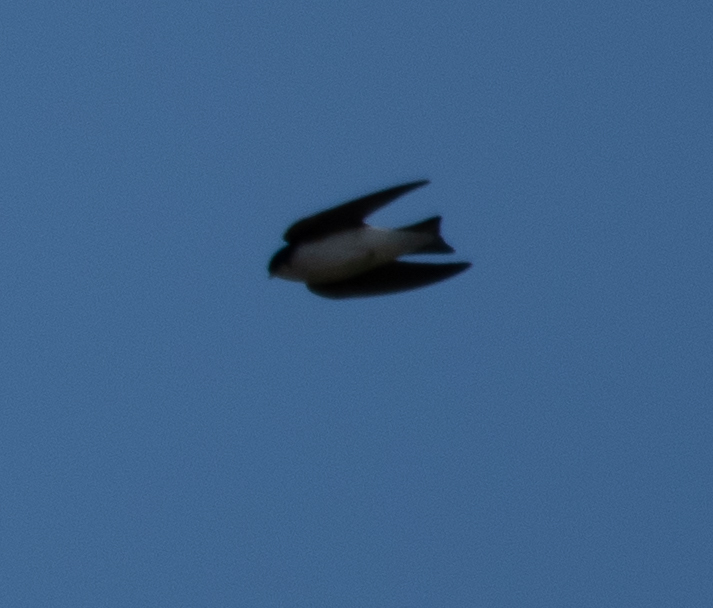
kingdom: Animalia
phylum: Chordata
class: Aves
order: Passeriformes
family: Hirundinidae
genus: Tachycineta
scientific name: Tachycineta bicolor
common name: Tree swallow
